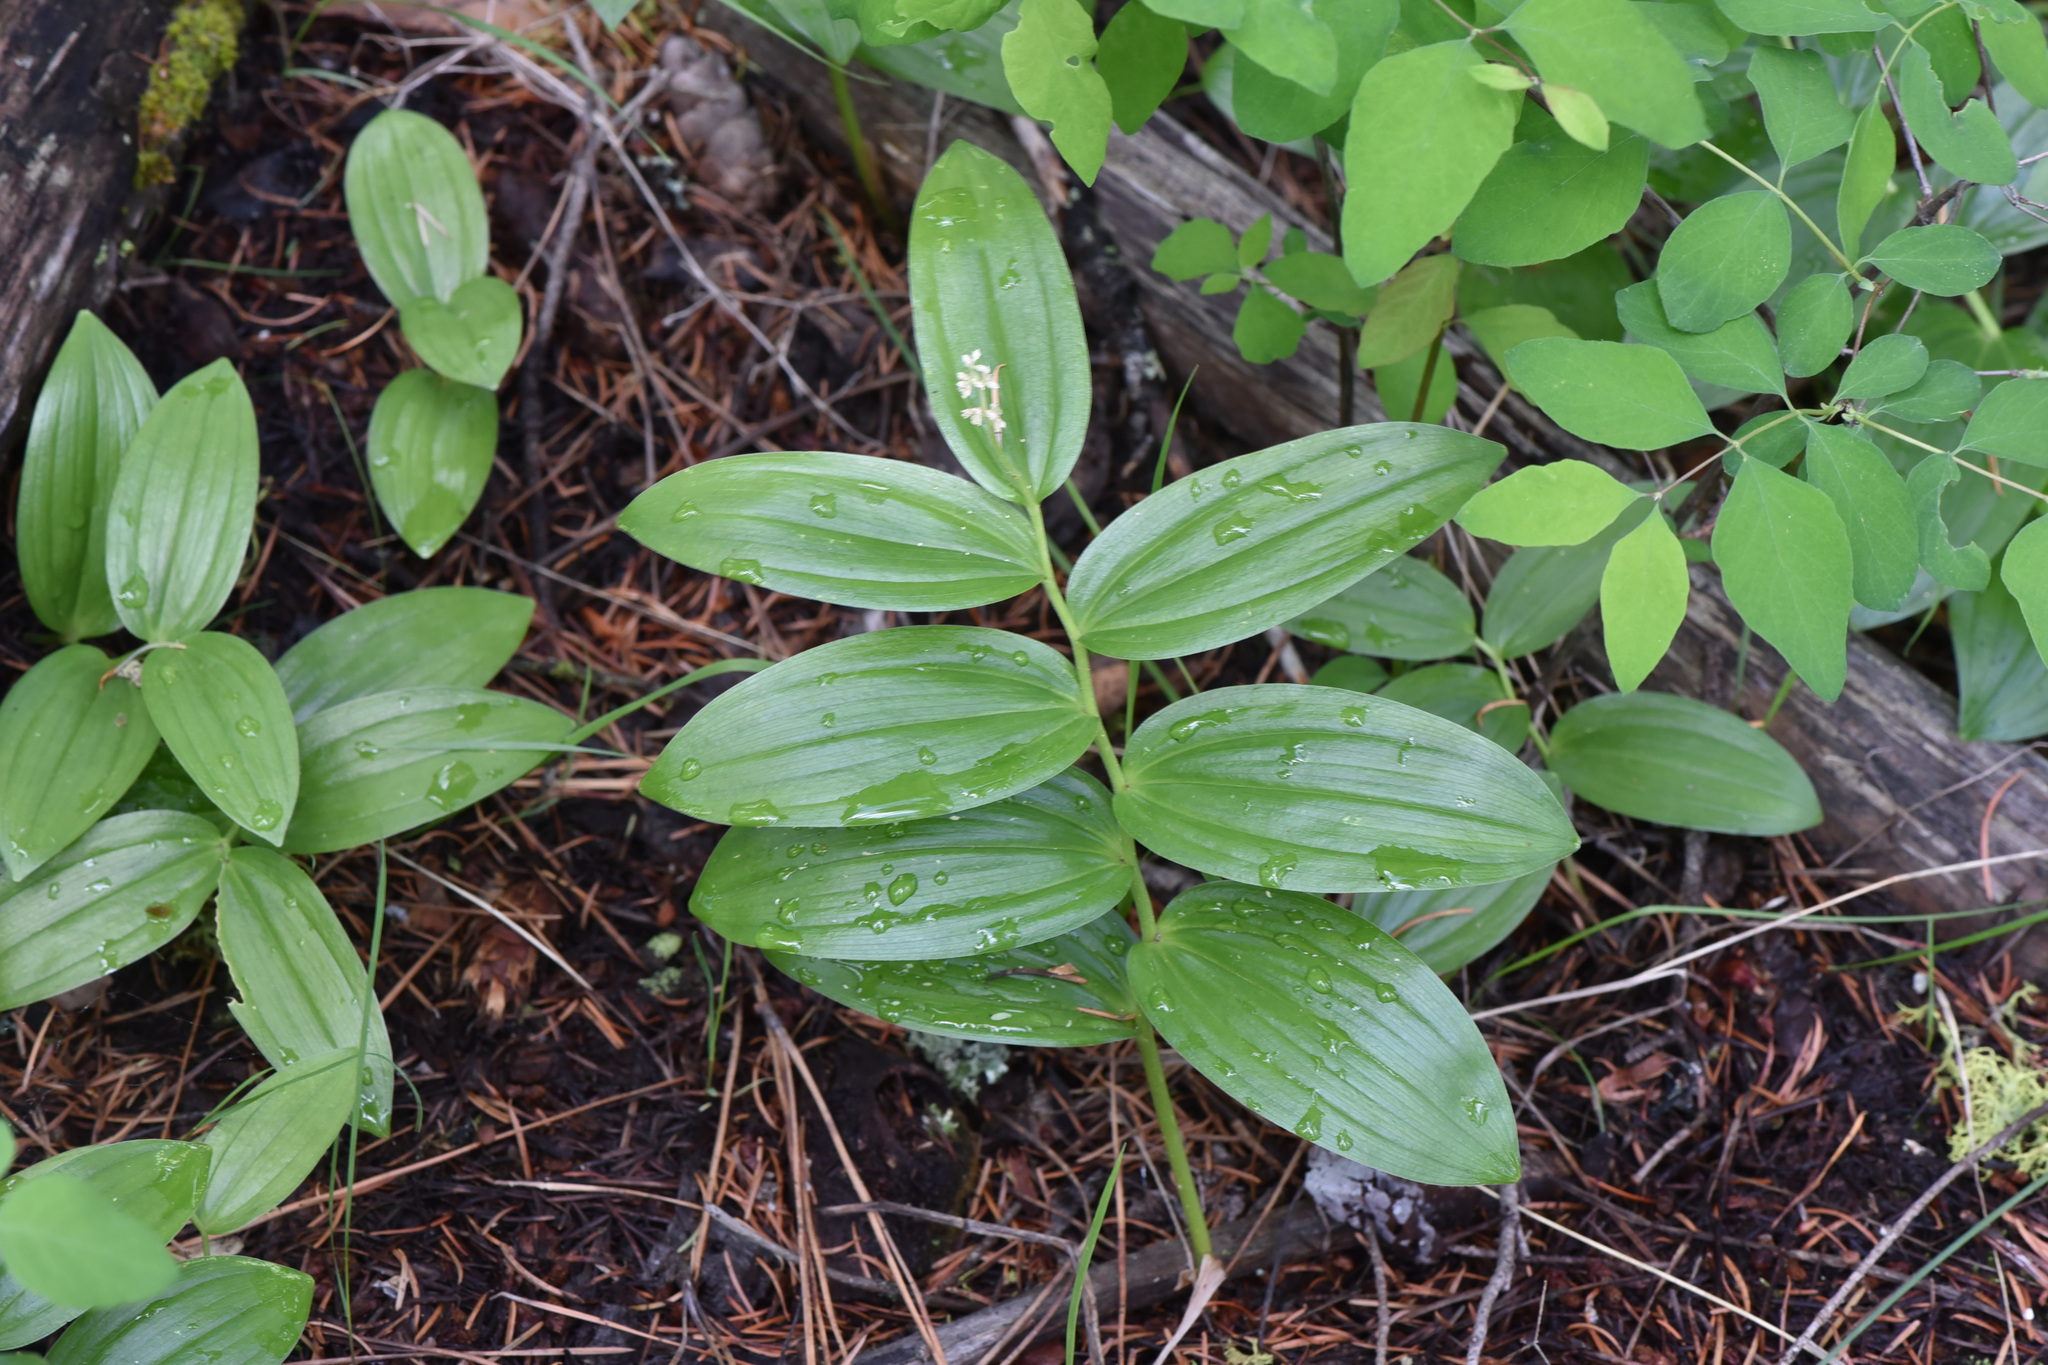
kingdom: Plantae
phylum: Tracheophyta
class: Liliopsida
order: Asparagales
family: Asparagaceae
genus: Maianthemum
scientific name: Maianthemum racemosum
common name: False spikenard
